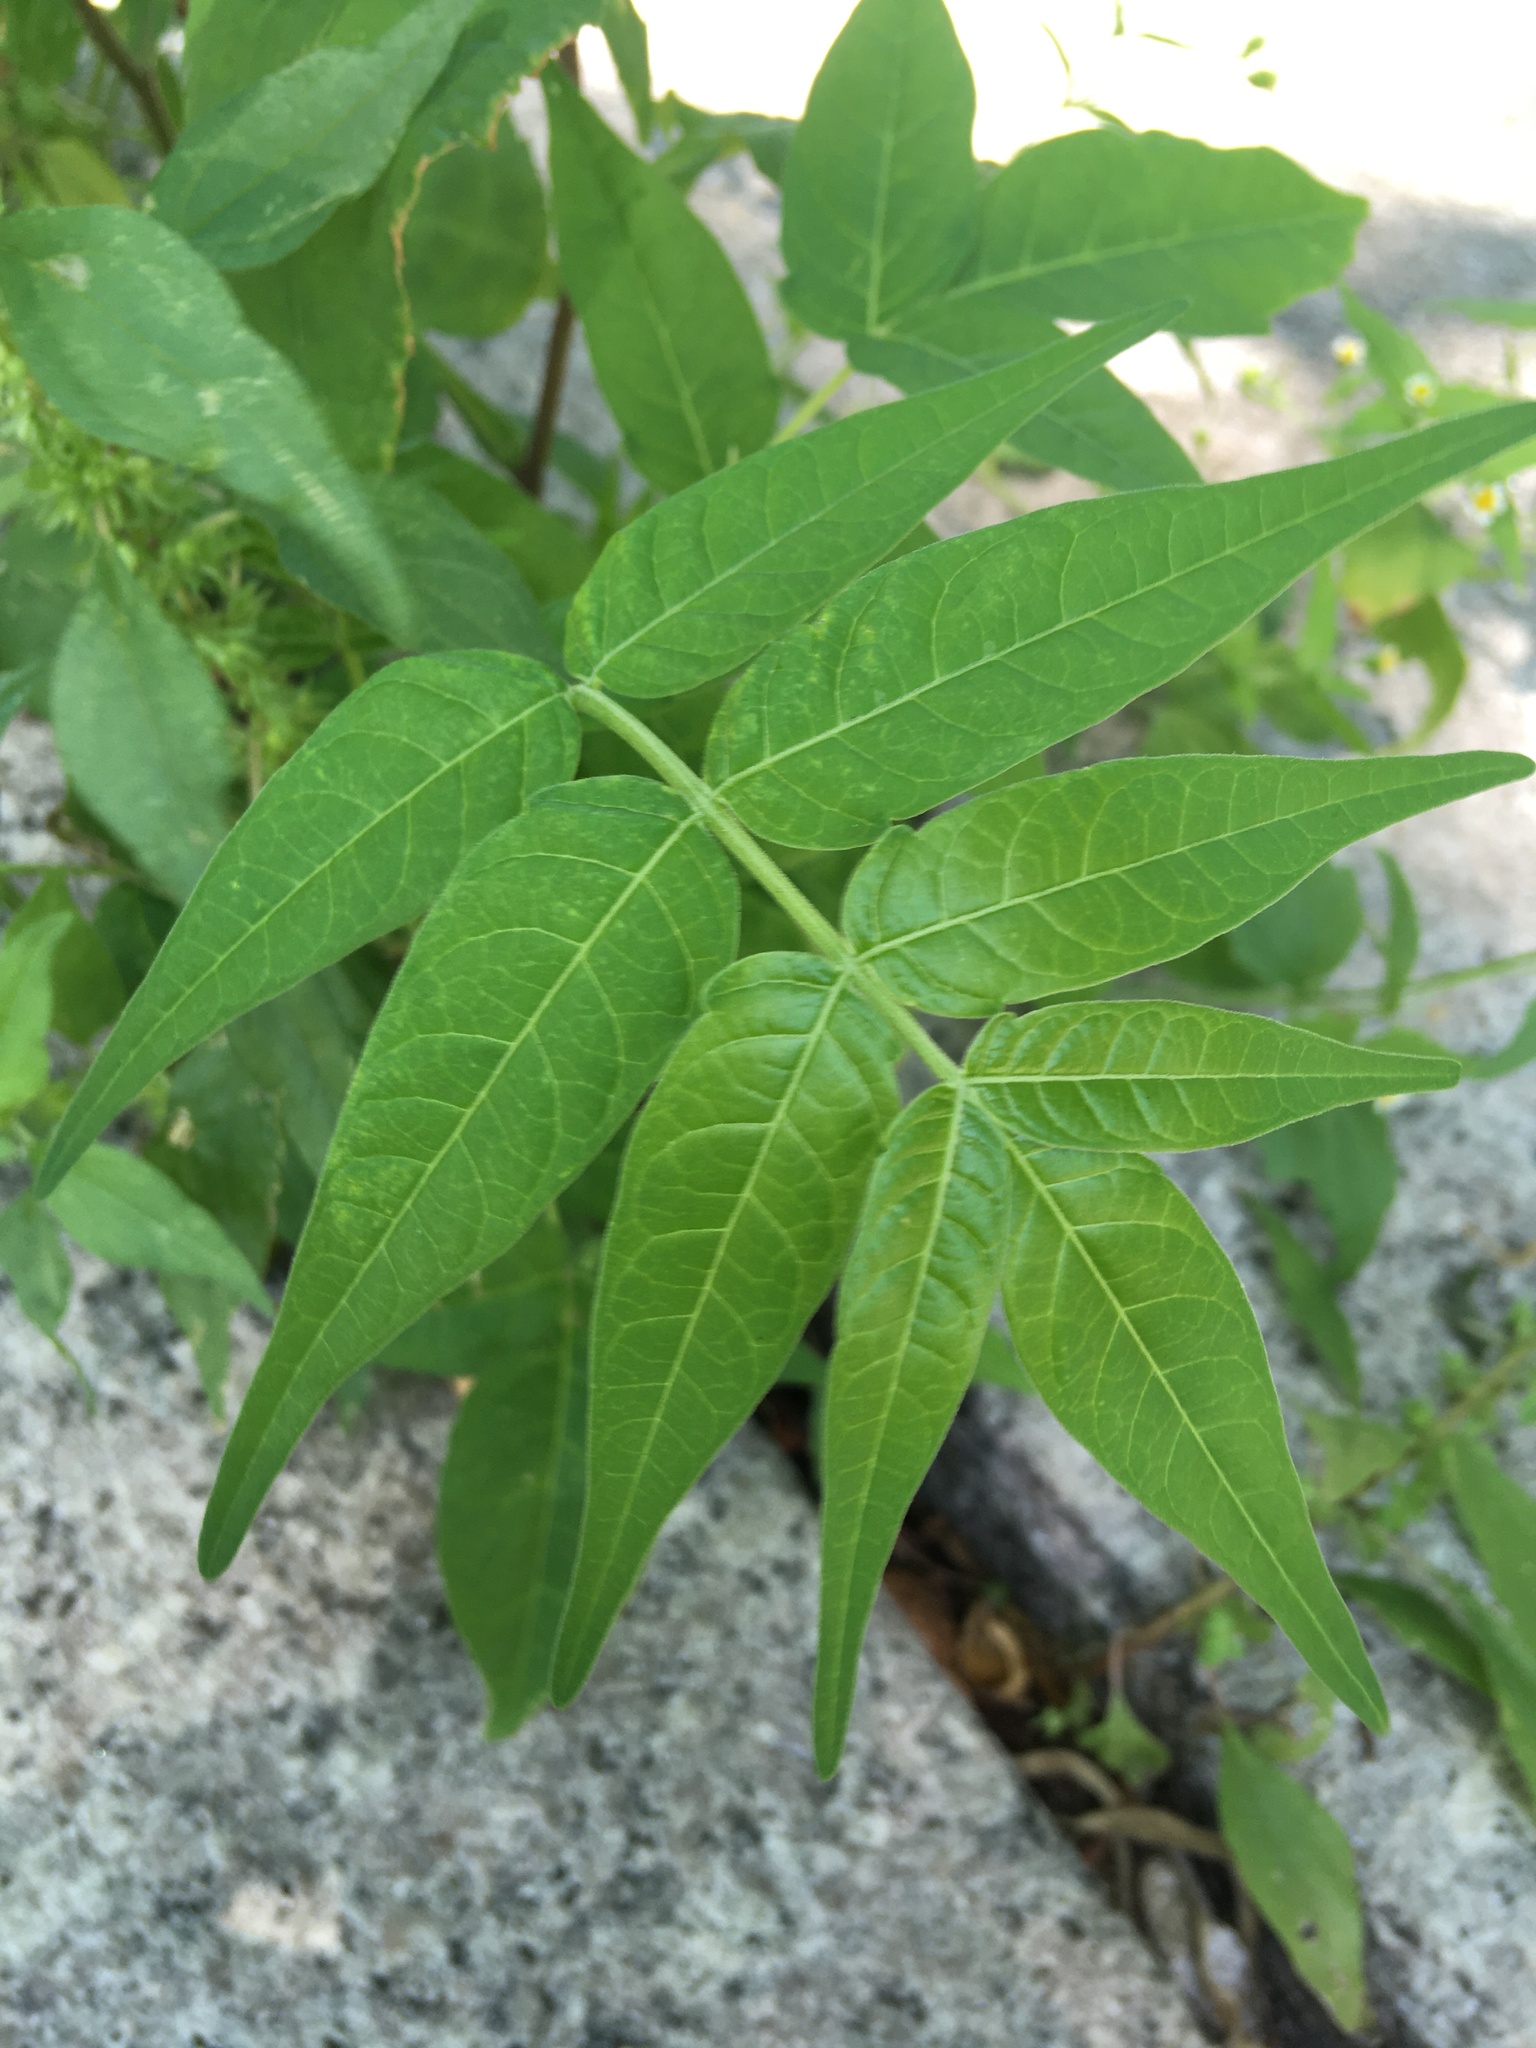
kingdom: Plantae
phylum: Tracheophyta
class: Magnoliopsida
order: Sapindales
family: Simaroubaceae
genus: Ailanthus
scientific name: Ailanthus altissima
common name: Tree-of-heaven
